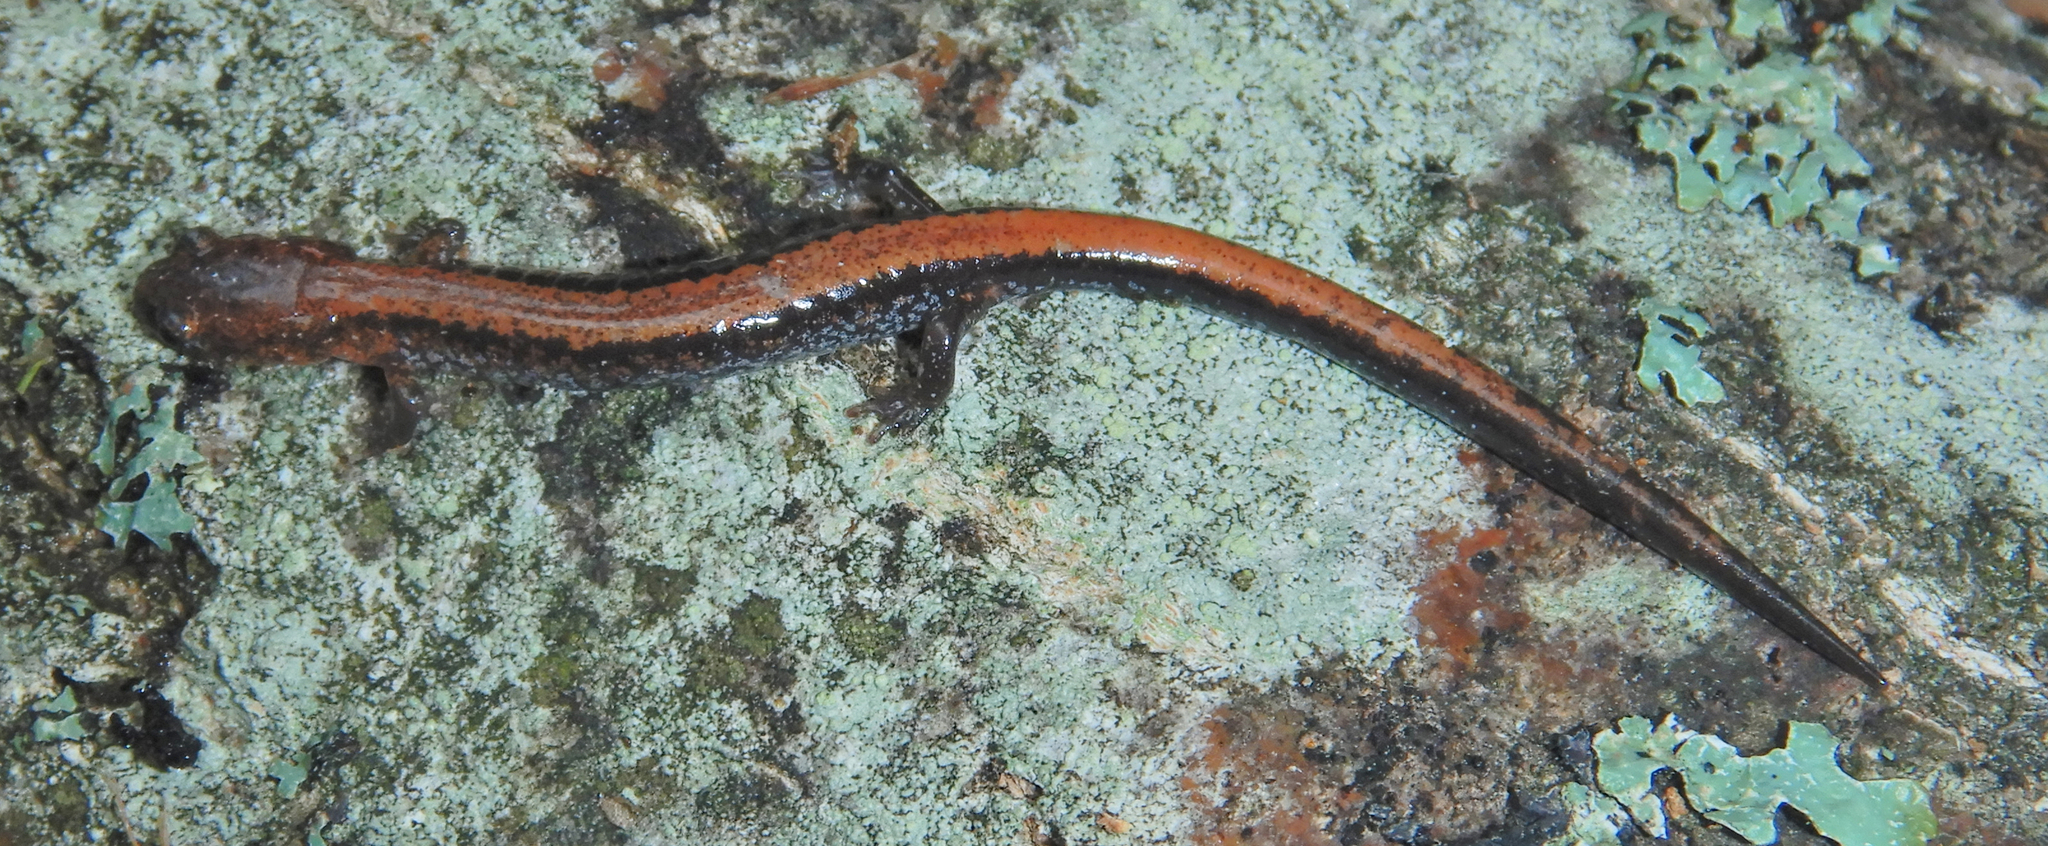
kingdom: Animalia
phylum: Chordata
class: Amphibia
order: Caudata
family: Plethodontidae
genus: Plethodon
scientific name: Plethodon cinereus
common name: Redback salamander
